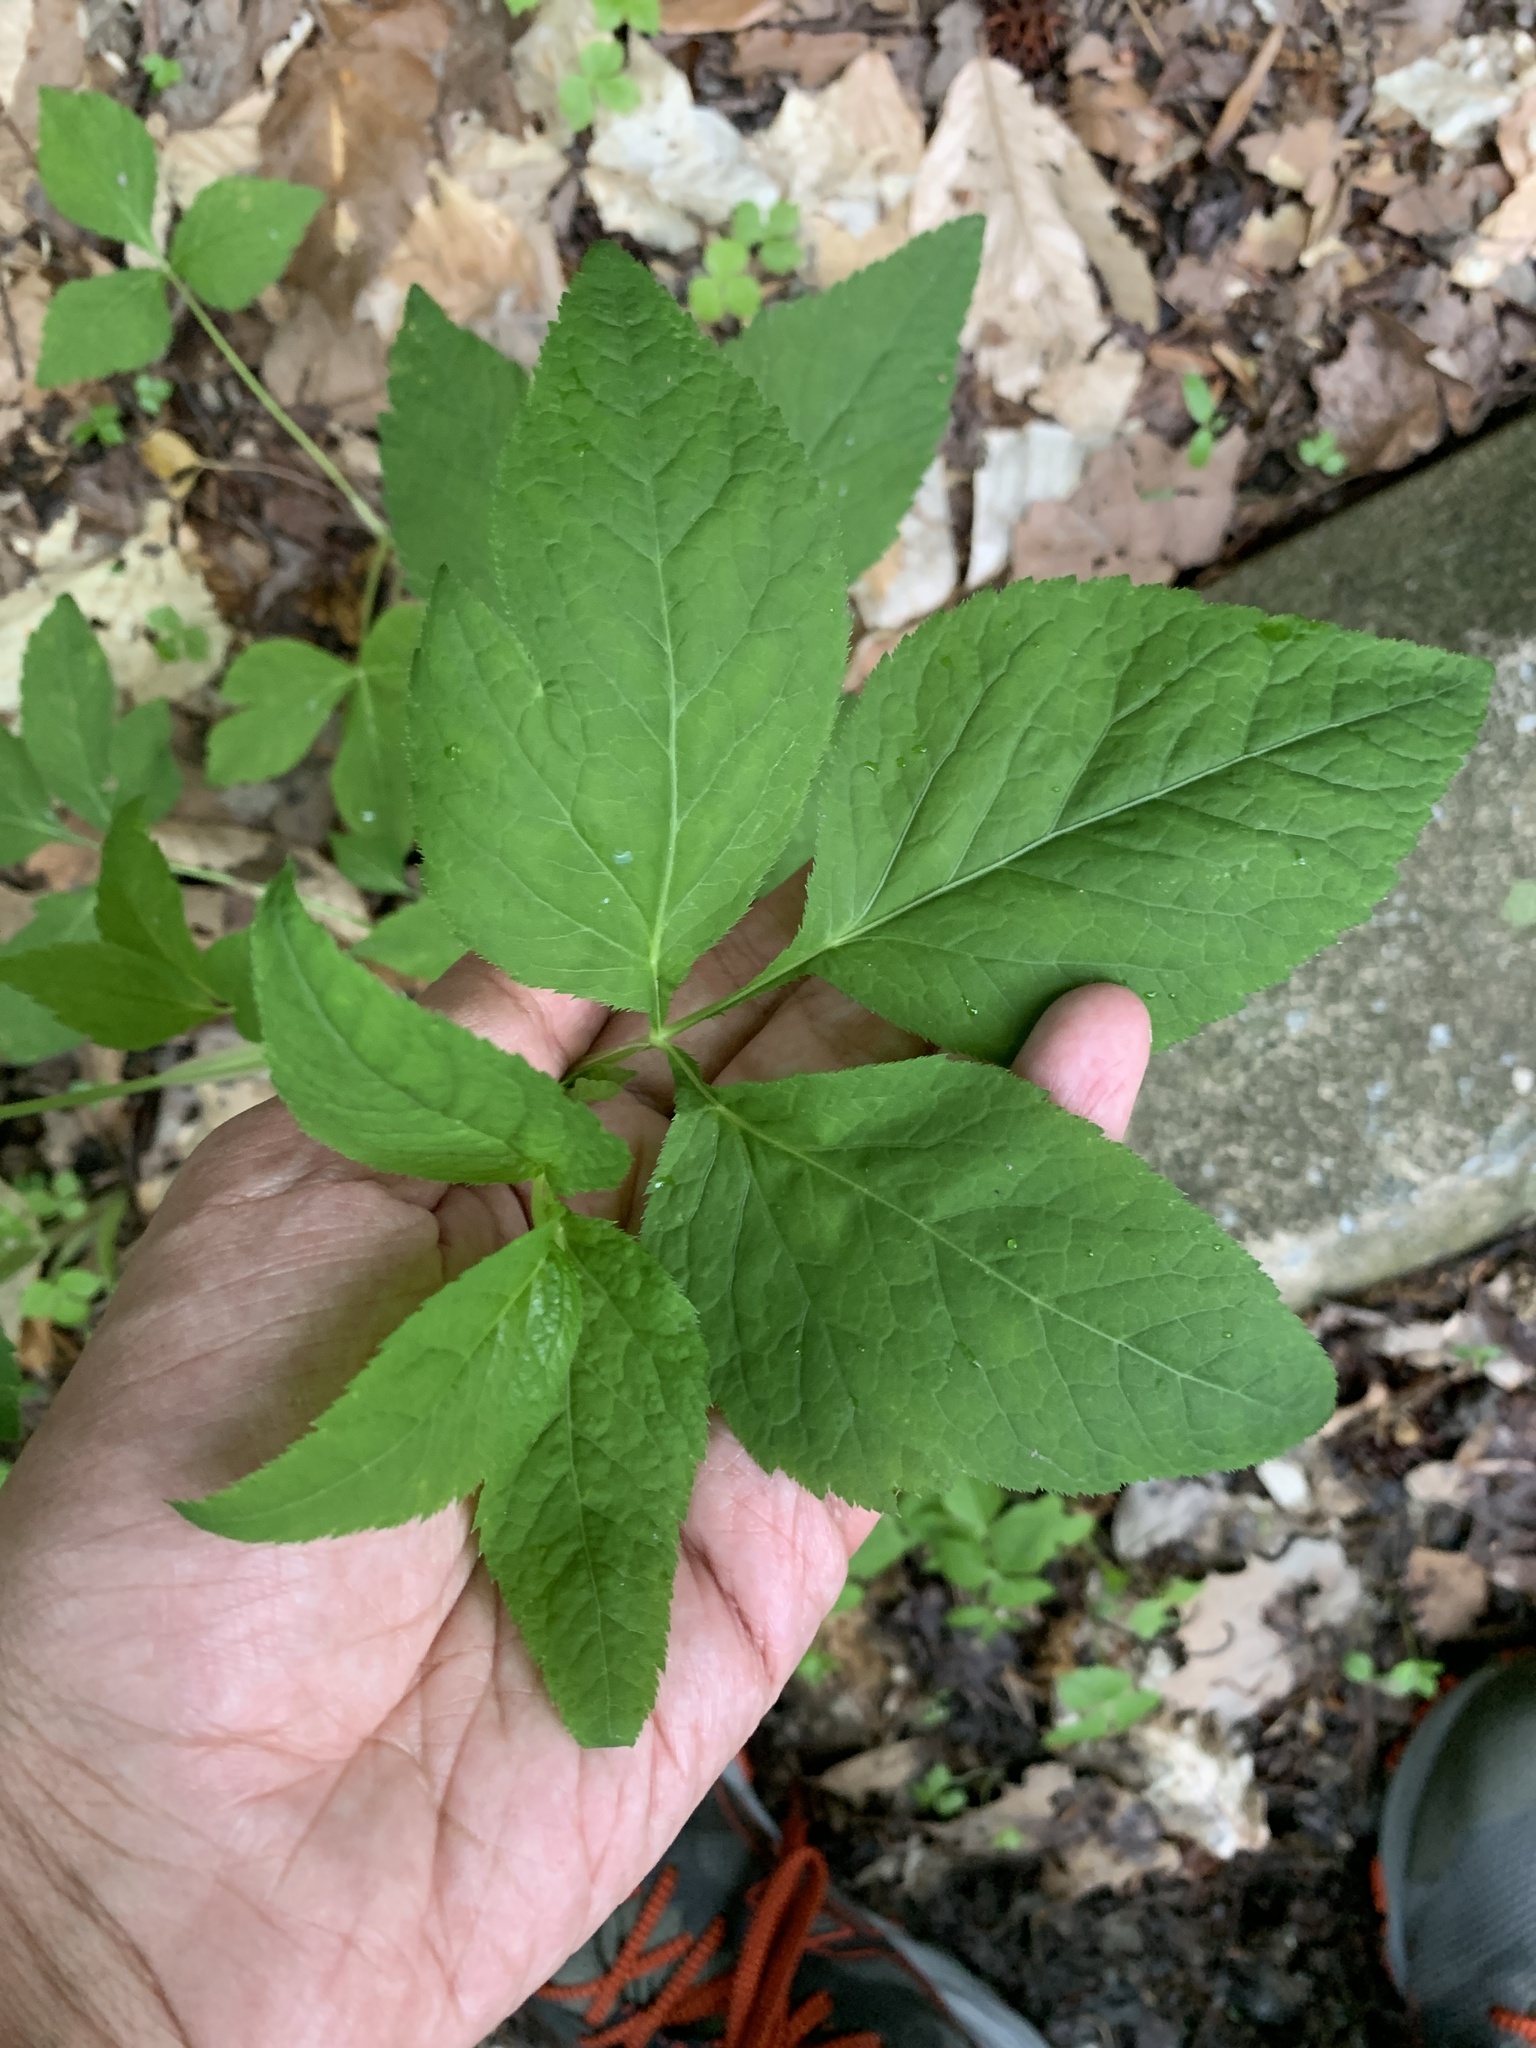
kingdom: Plantae
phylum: Tracheophyta
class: Magnoliopsida
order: Apiales
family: Apiaceae
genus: Cryptotaenia
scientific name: Cryptotaenia canadensis
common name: Honewort
